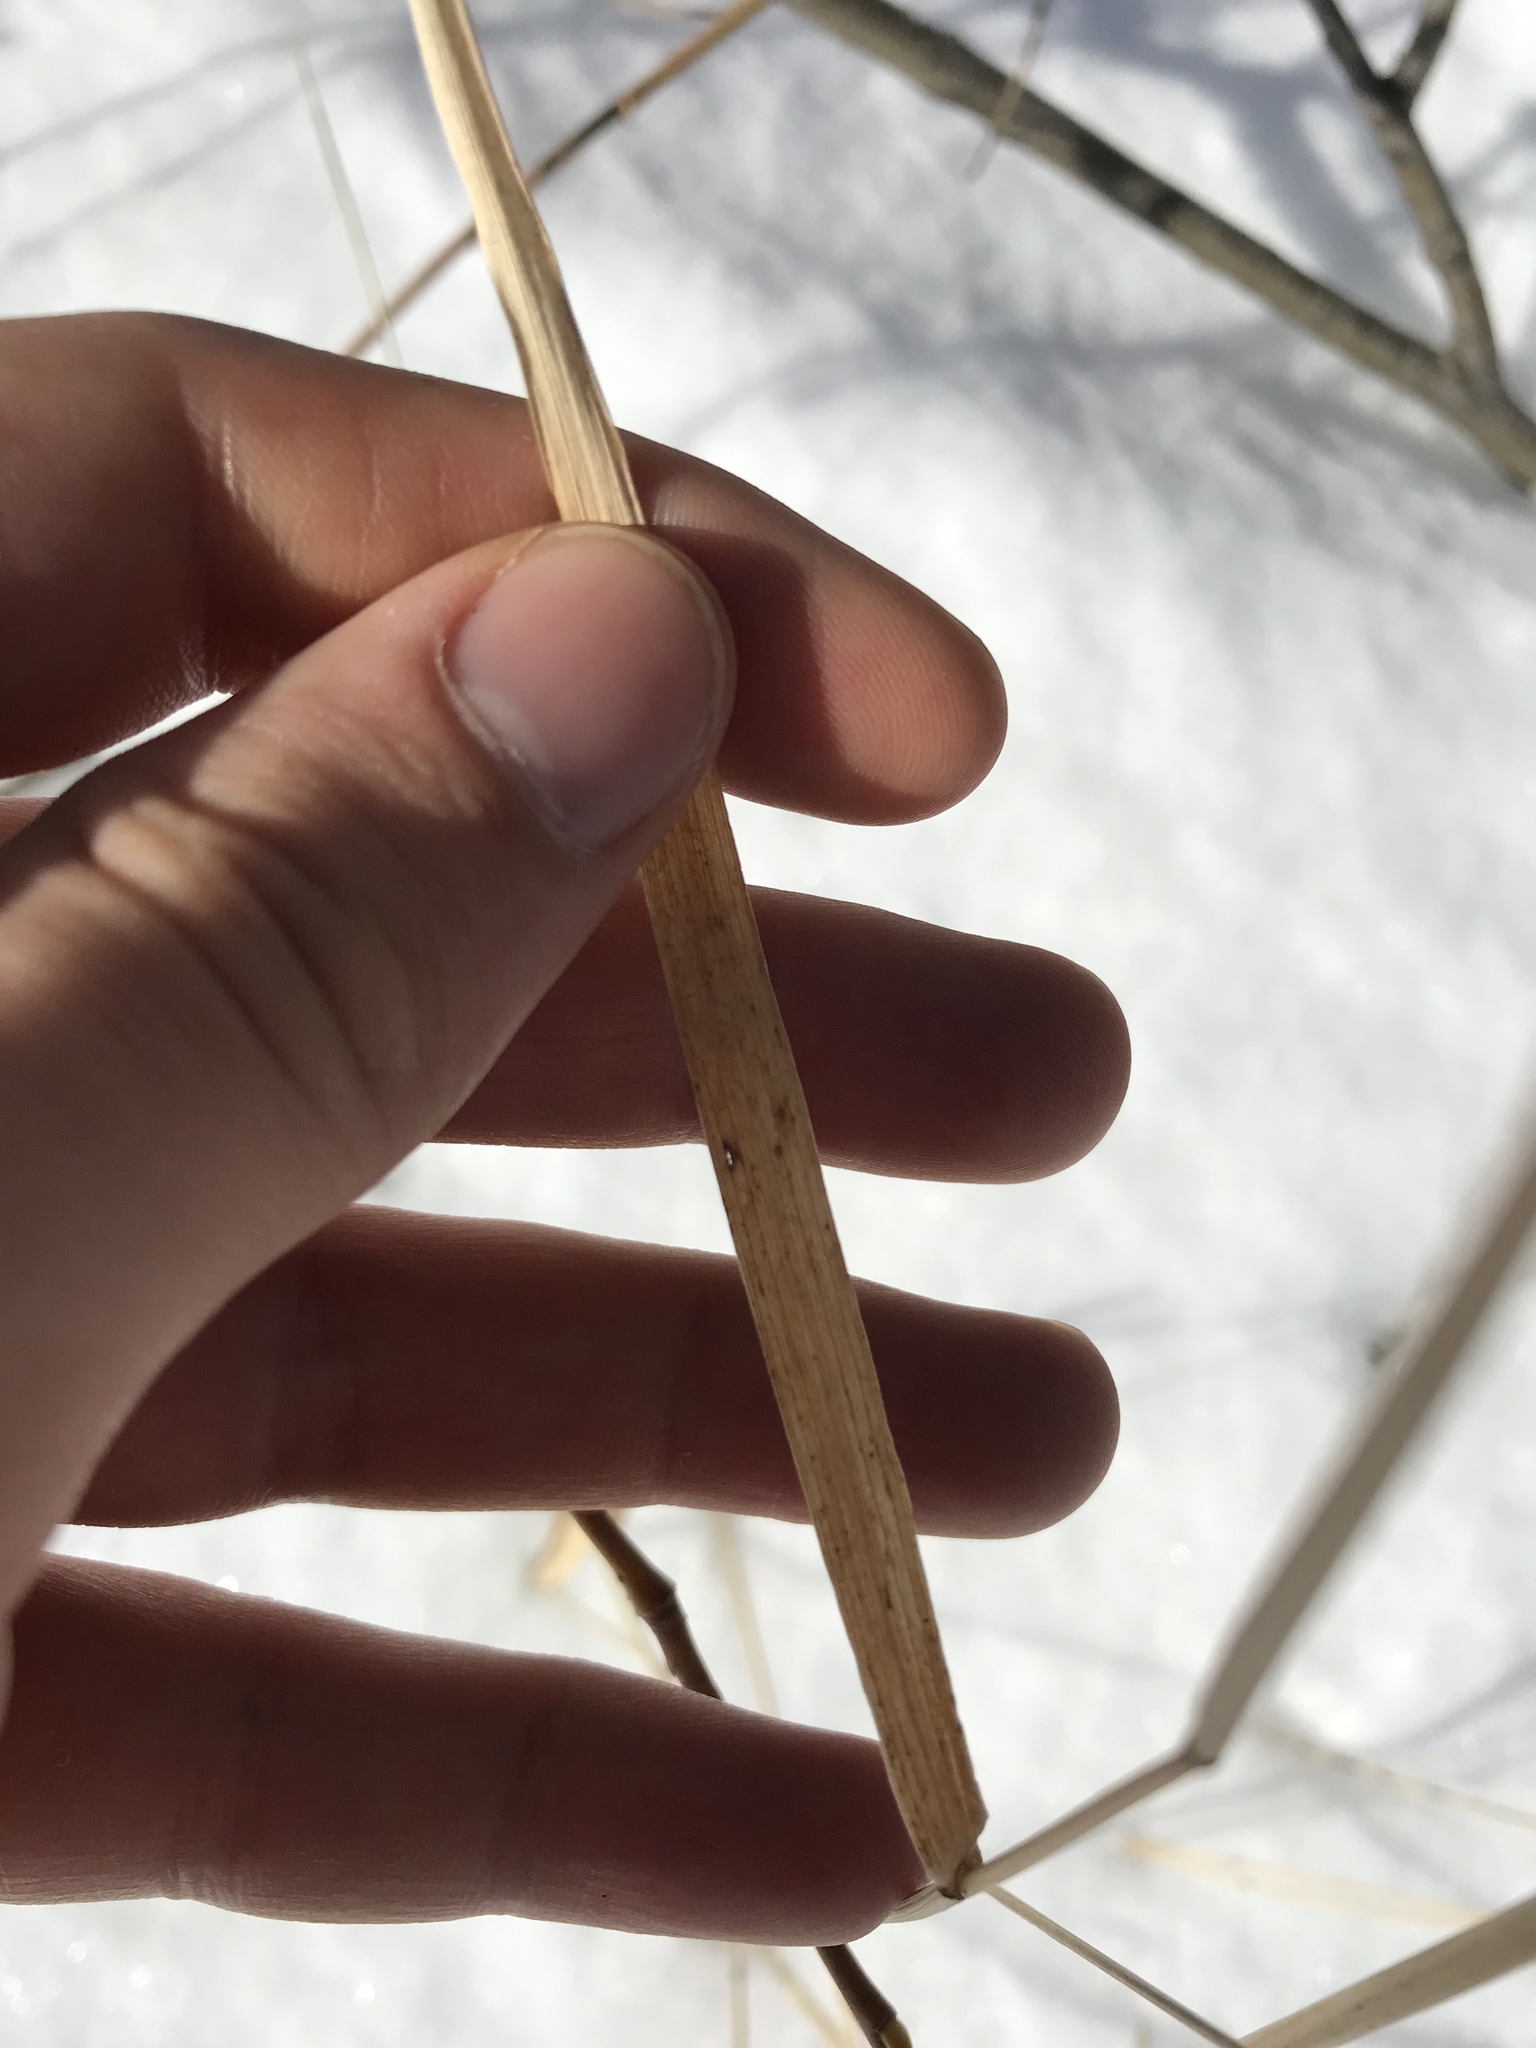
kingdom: Plantae
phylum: Tracheophyta
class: Liliopsida
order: Poales
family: Poaceae
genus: Phleum
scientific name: Phleum pratense
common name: Timothy grass
